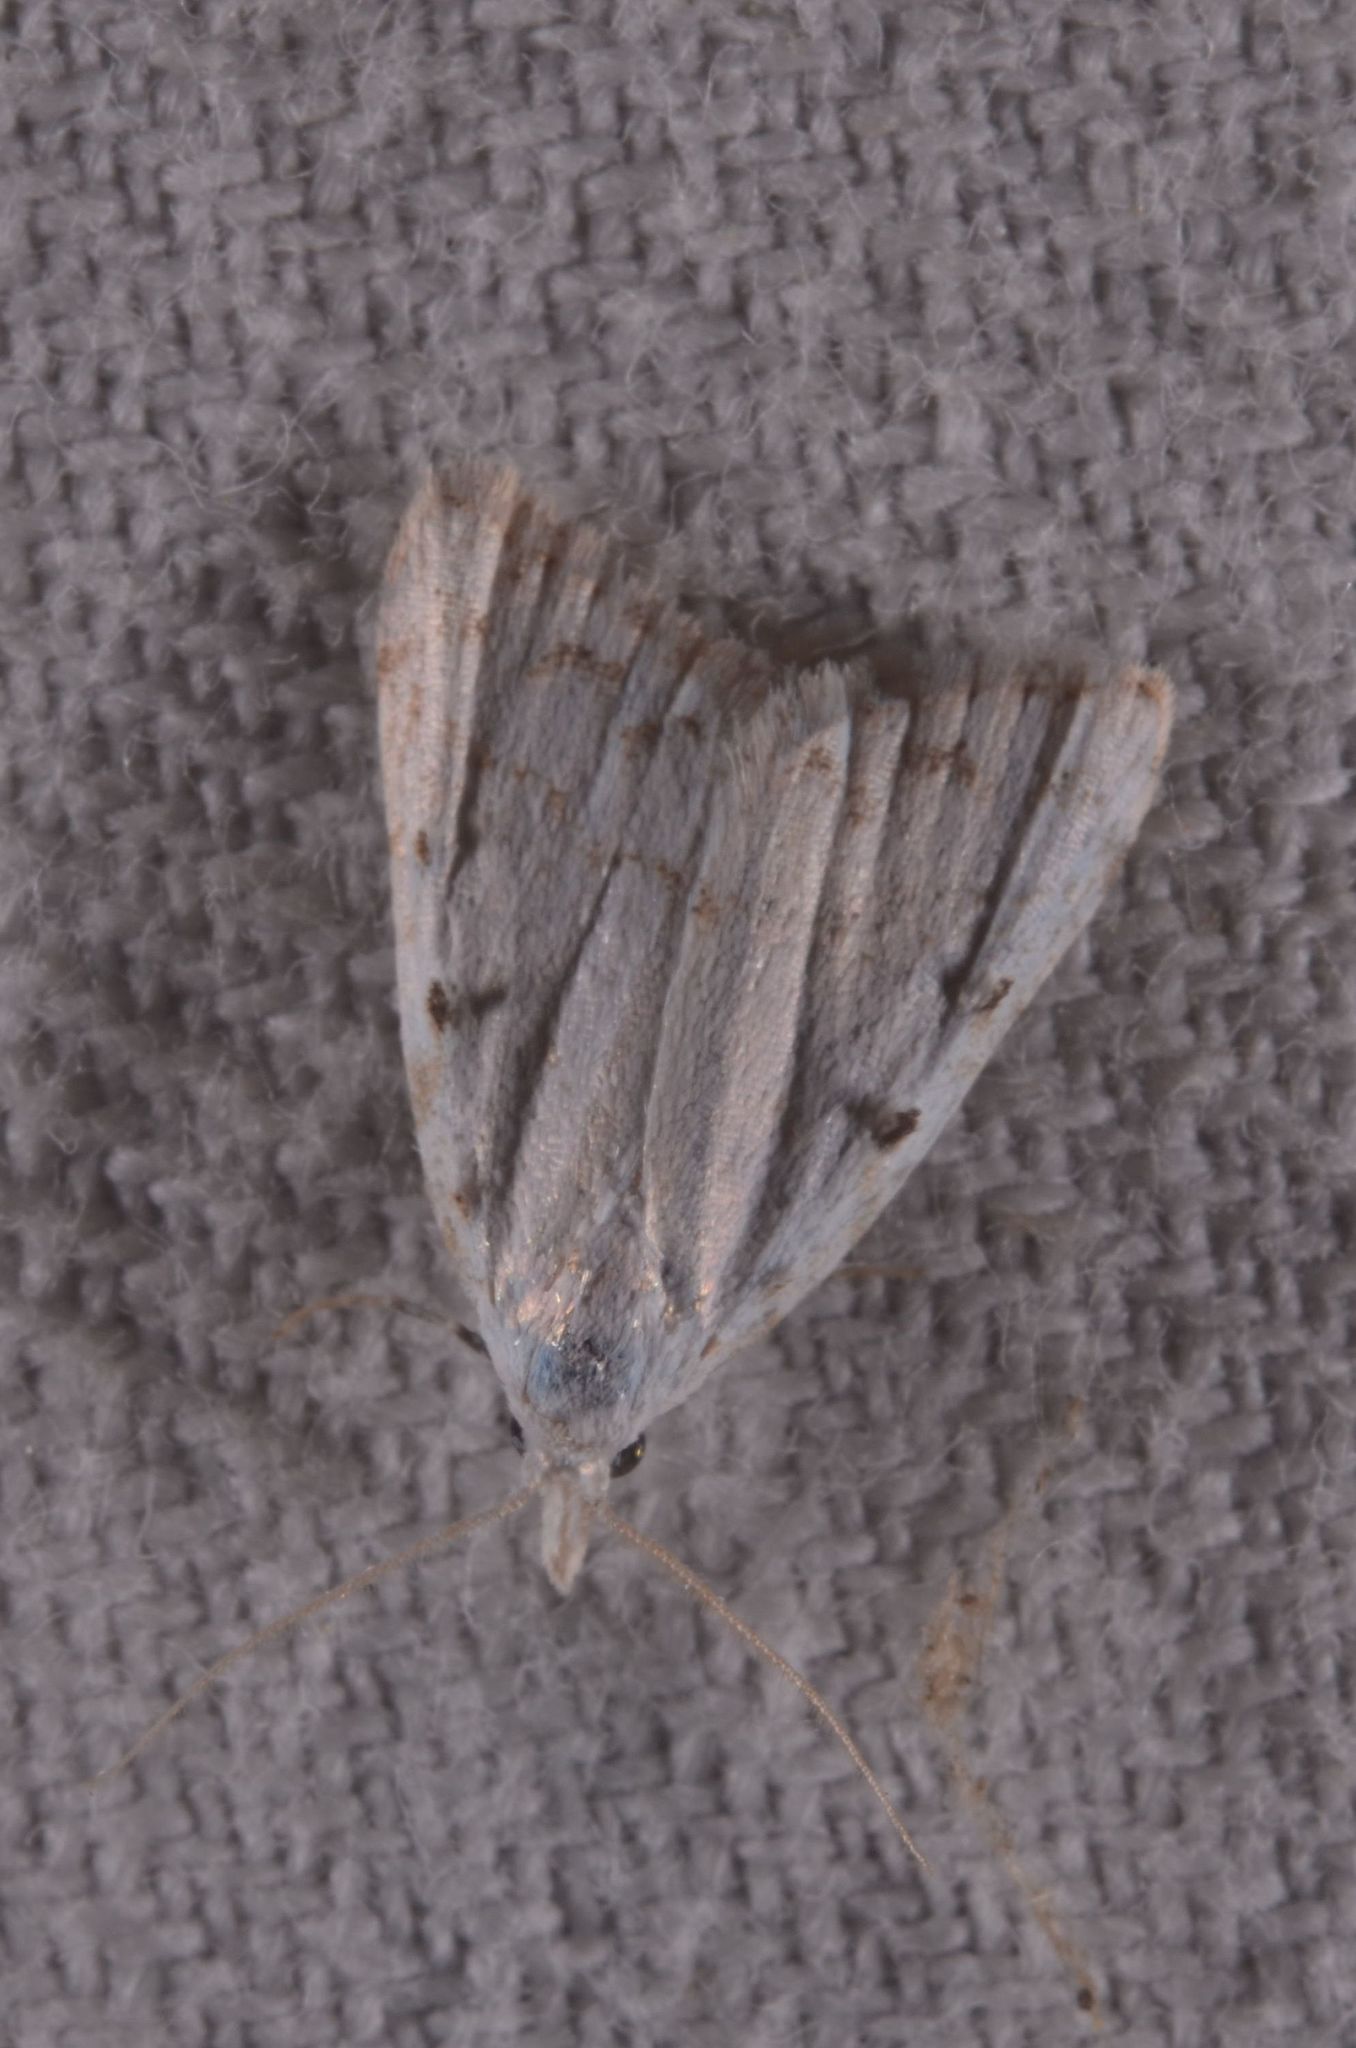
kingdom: Animalia
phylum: Arthropoda
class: Insecta
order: Lepidoptera
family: Nolidae
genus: Nola
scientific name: Nola aerugula
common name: Scarce black arches
